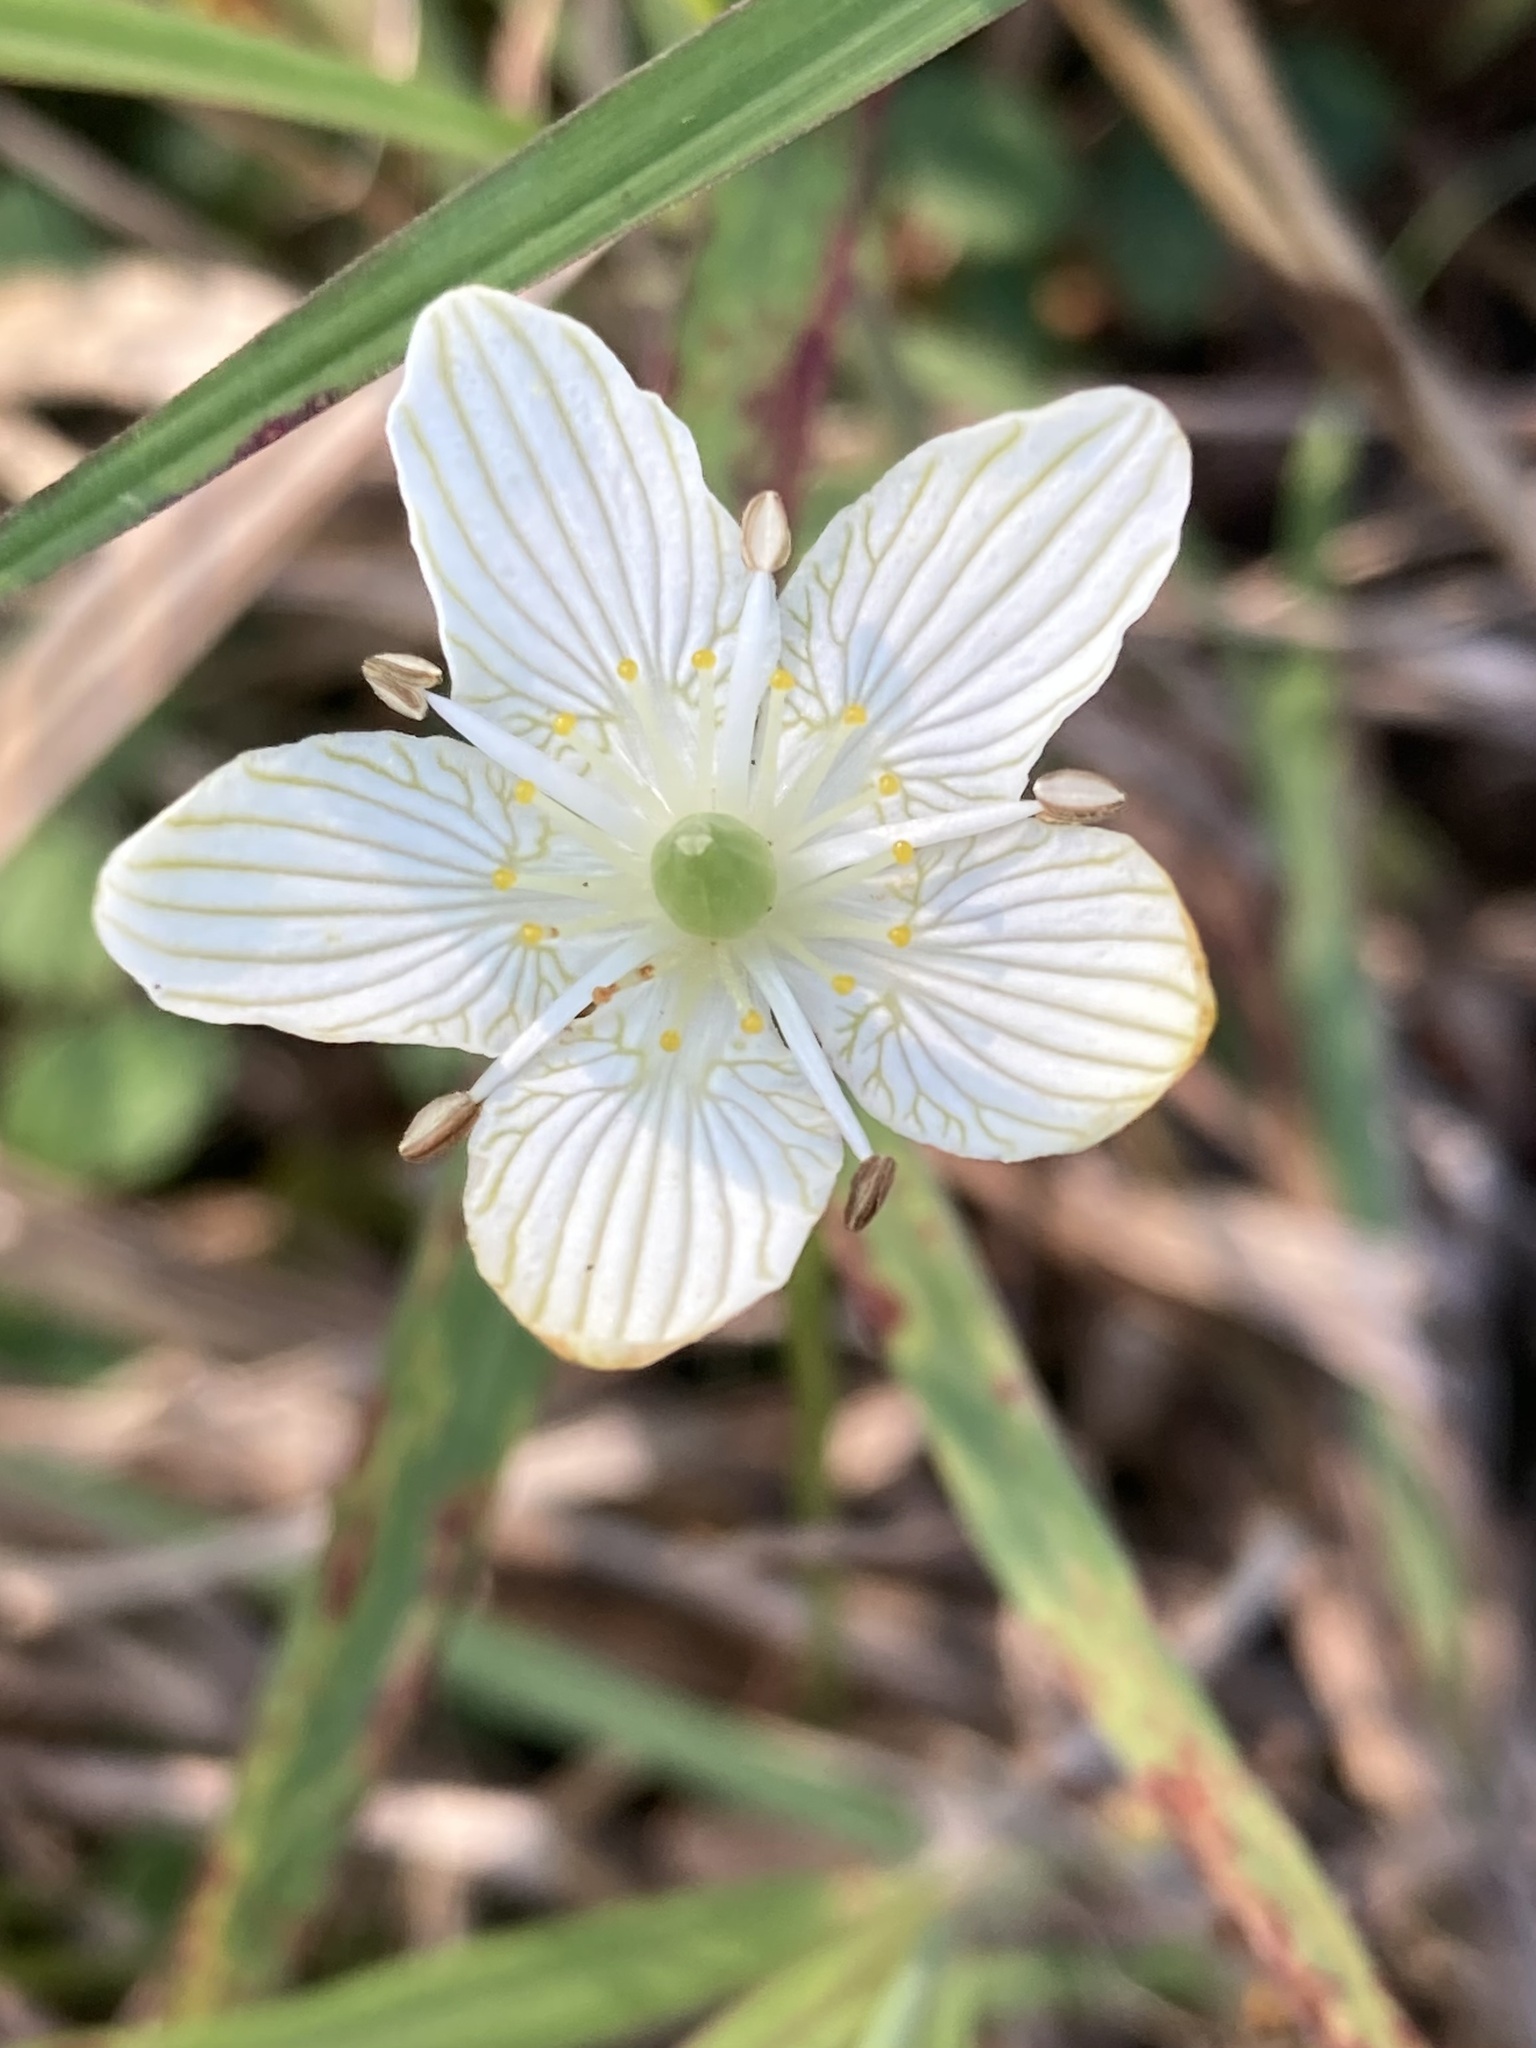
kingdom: Plantae
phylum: Tracheophyta
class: Magnoliopsida
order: Celastrales
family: Parnassiaceae
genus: Parnassia
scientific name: Parnassia glauca
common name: American grass-of-parnassus
